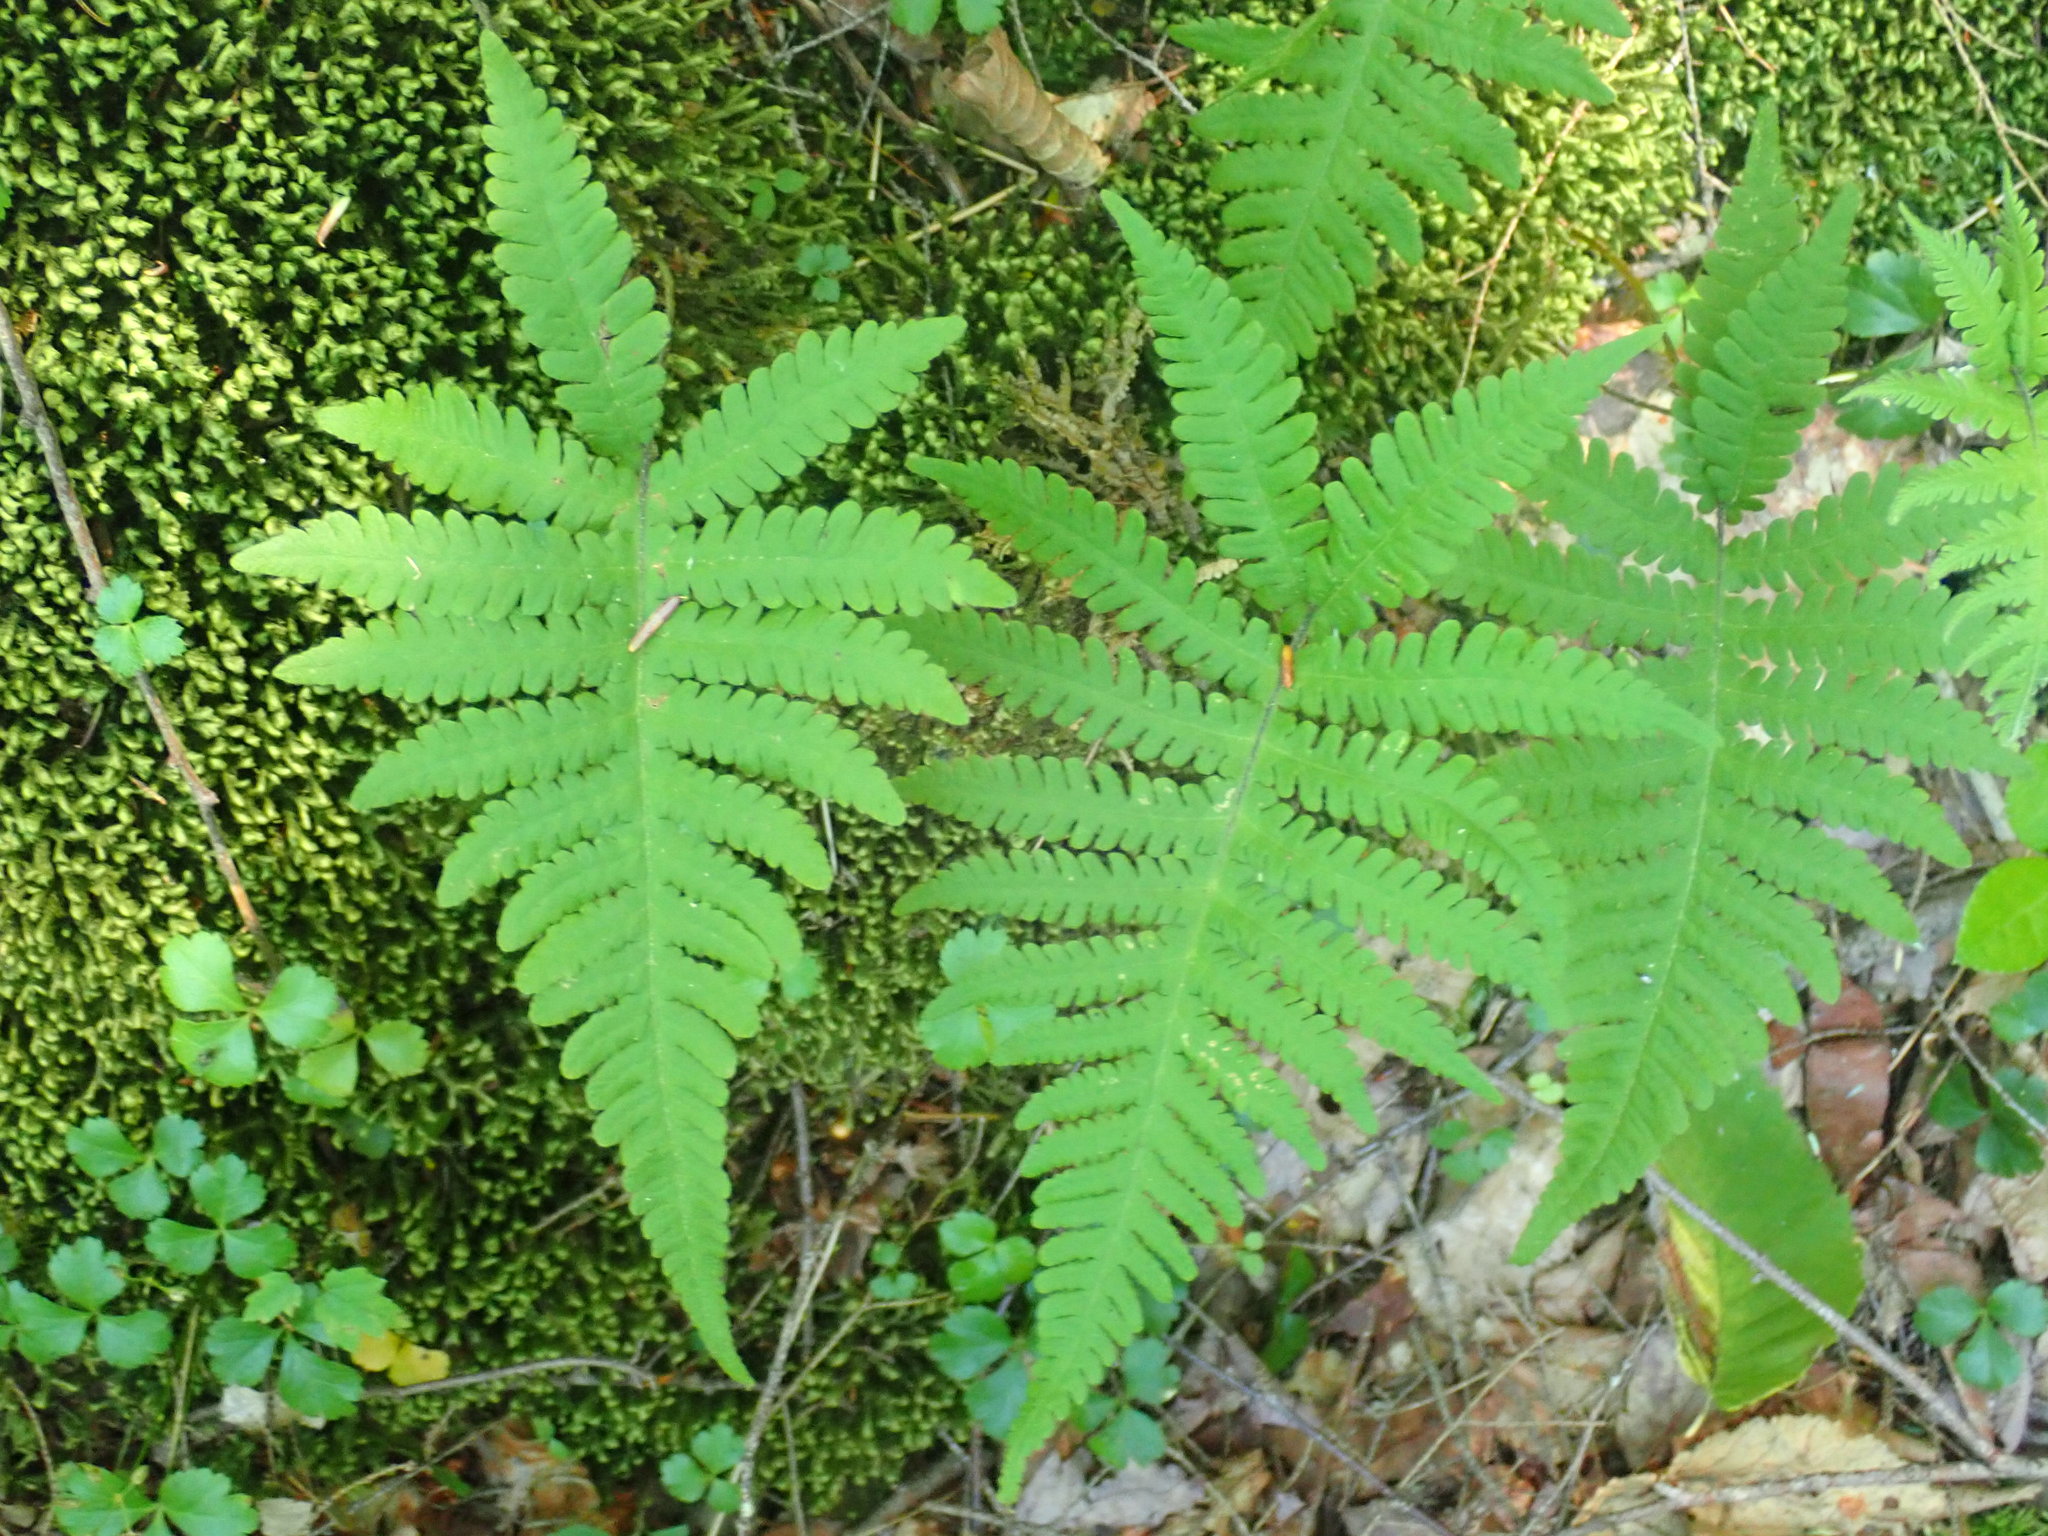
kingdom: Plantae
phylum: Tracheophyta
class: Polypodiopsida
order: Polypodiales
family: Thelypteridaceae
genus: Phegopteris
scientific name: Phegopteris connectilis
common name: Beech fern
